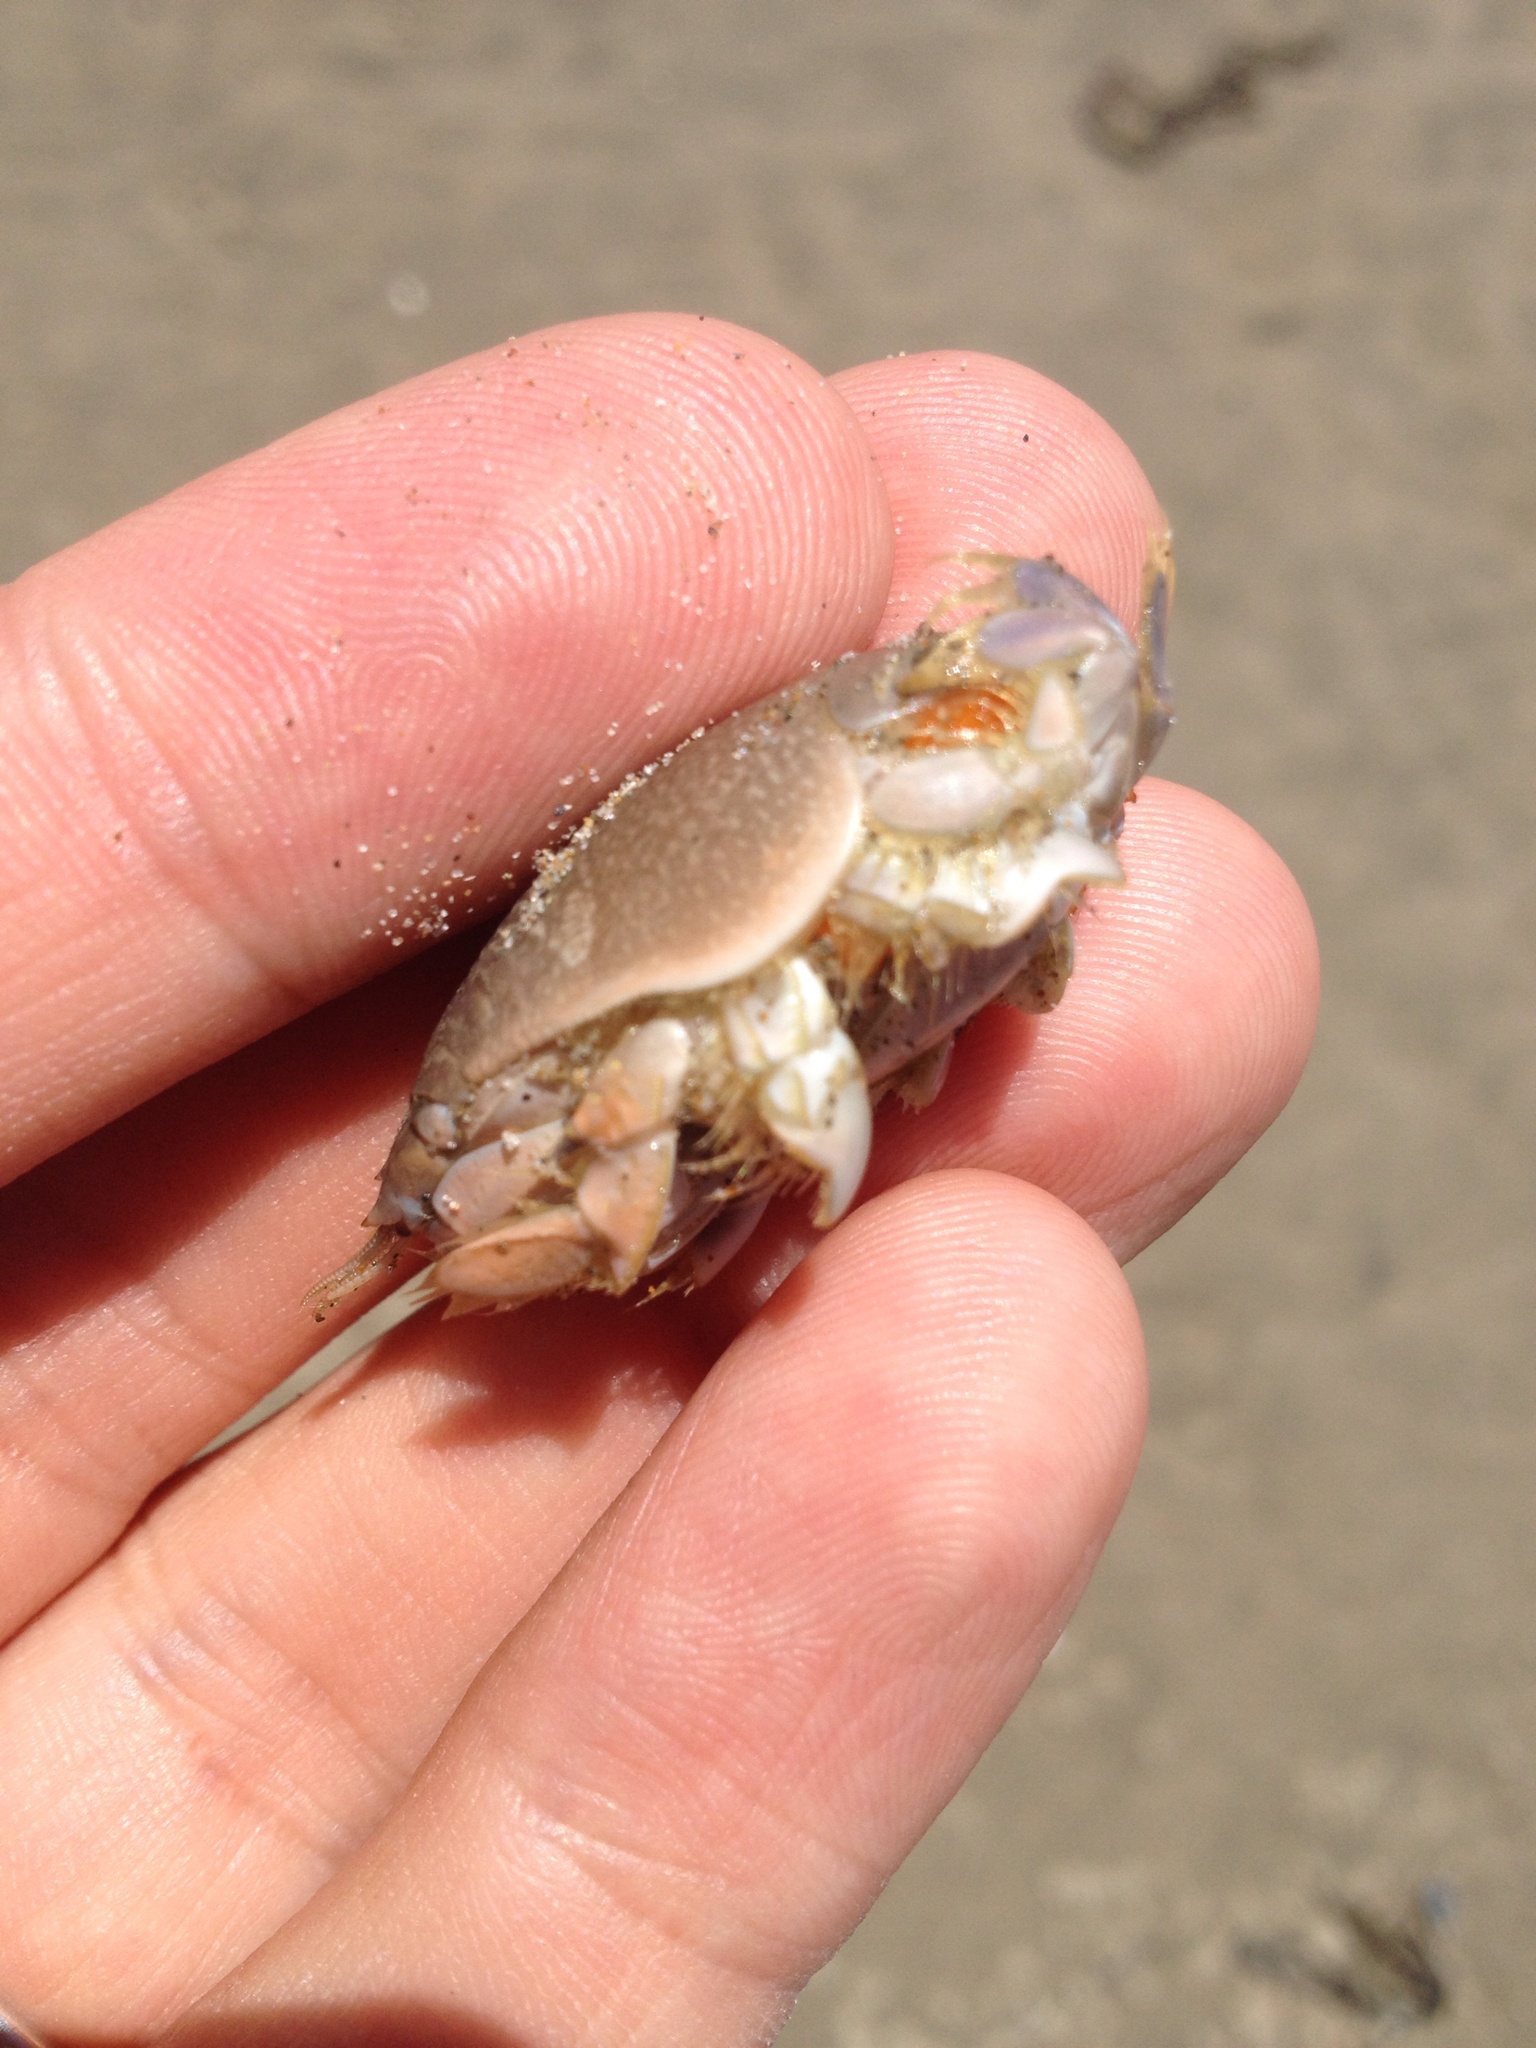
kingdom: Animalia
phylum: Arthropoda
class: Malacostraca
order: Decapoda
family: Hippidae
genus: Emerita
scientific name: Emerita analoga
